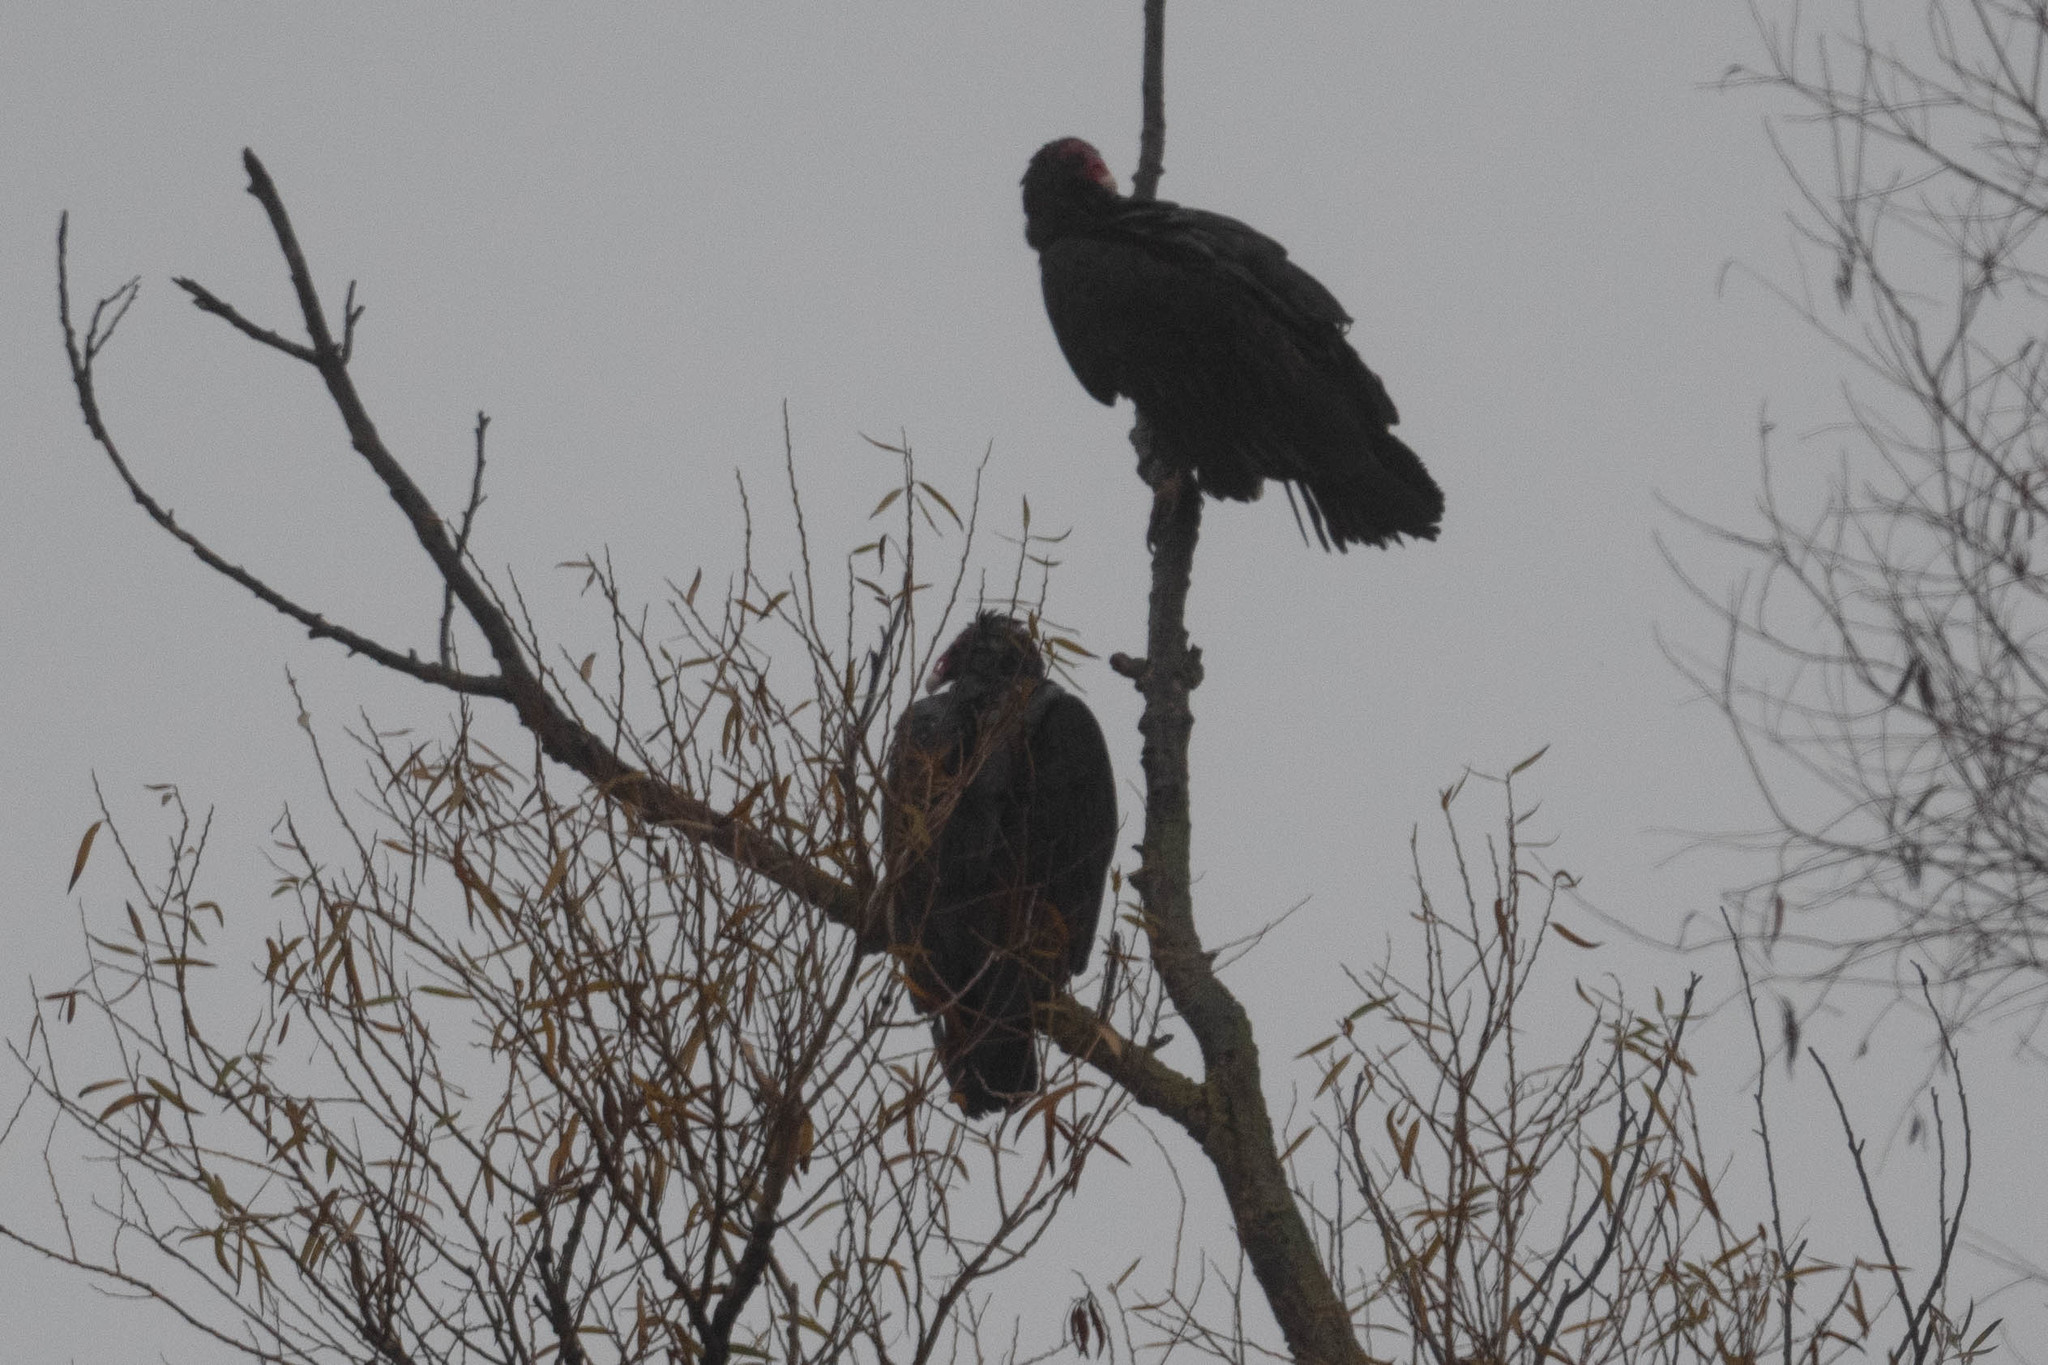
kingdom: Animalia
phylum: Chordata
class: Aves
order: Accipitriformes
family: Cathartidae
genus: Cathartes
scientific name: Cathartes aura
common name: Turkey vulture
